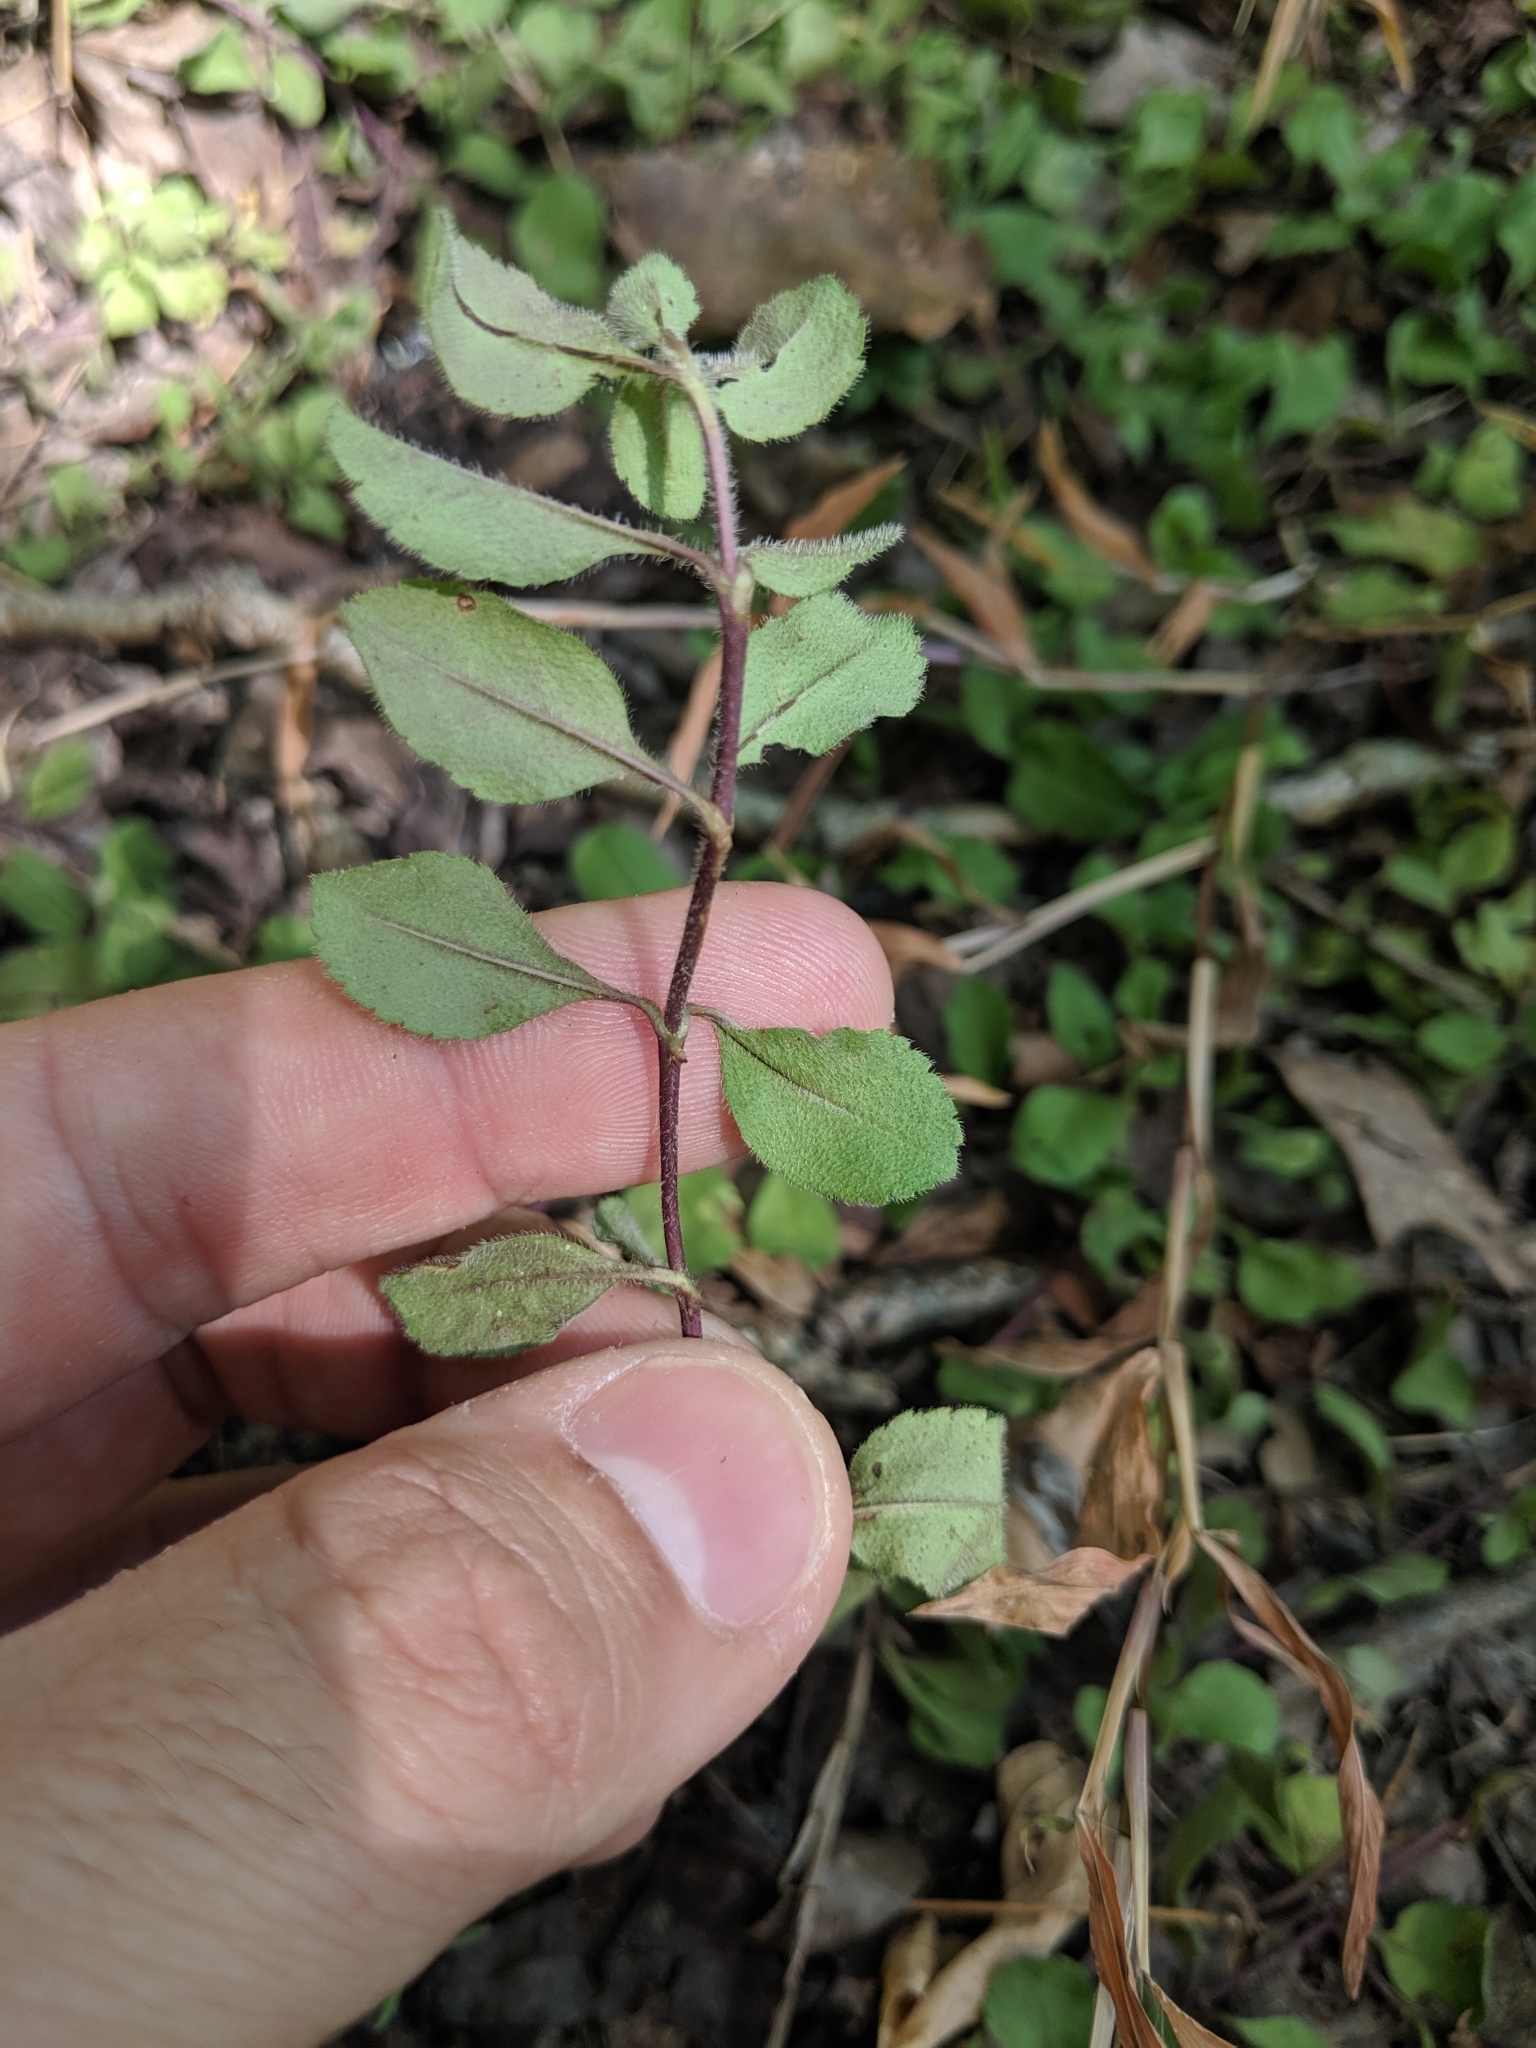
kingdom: Plantae
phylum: Tracheophyta
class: Magnoliopsida
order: Lamiales
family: Plantaginaceae
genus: Veronica
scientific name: Veronica officinalis
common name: Common speedwell
